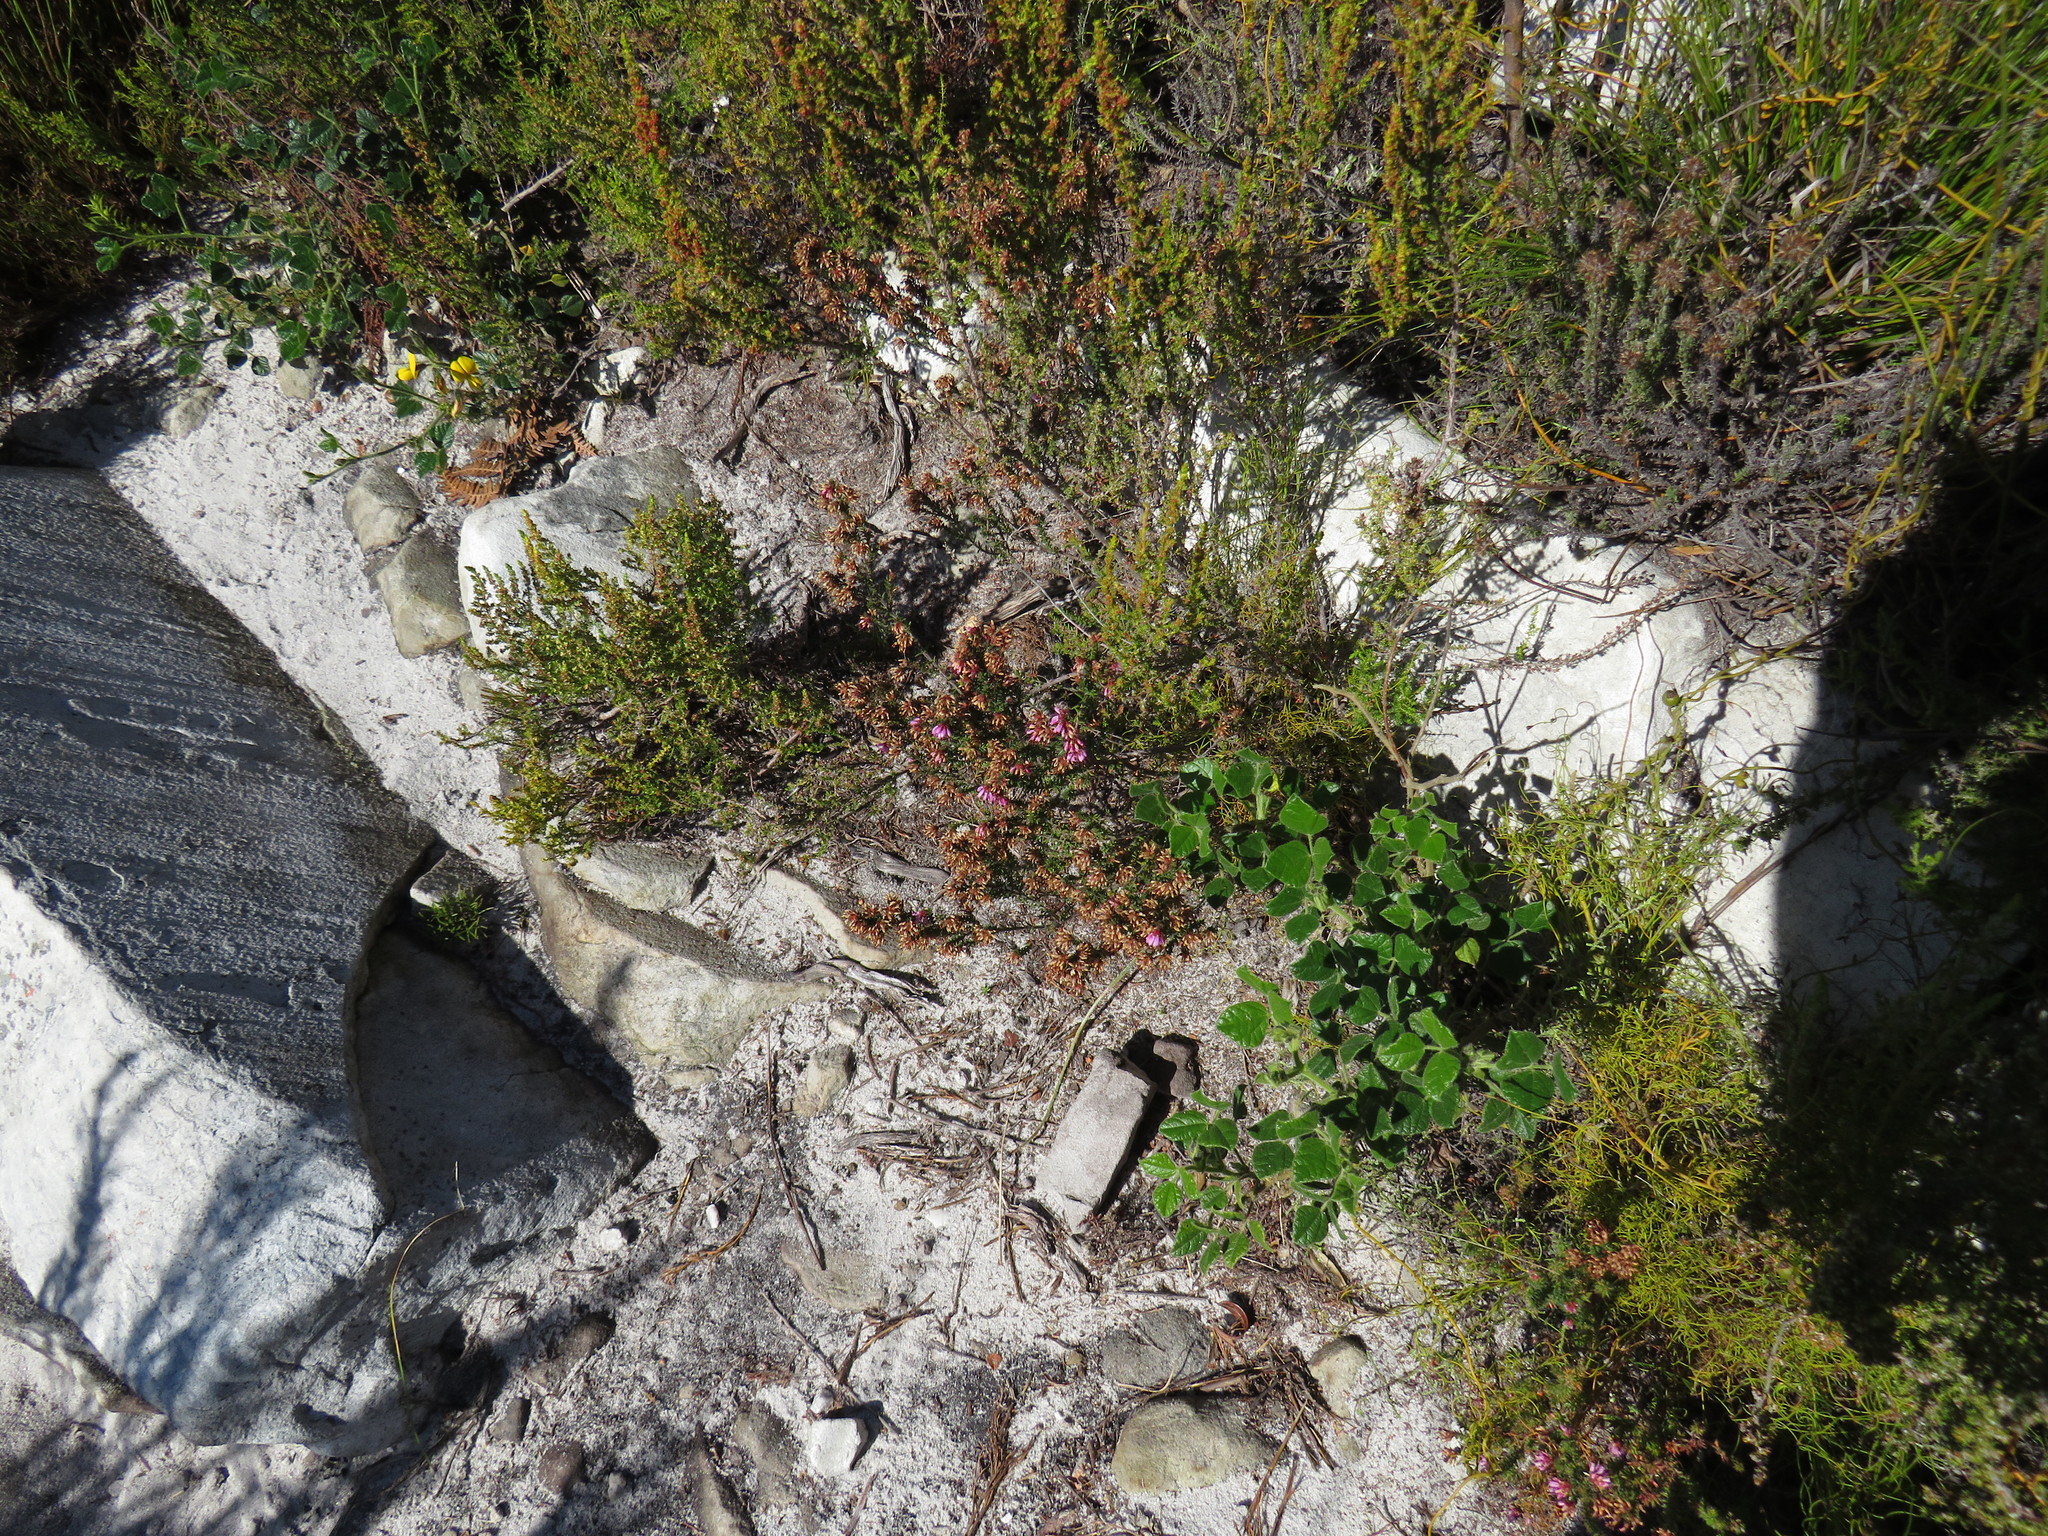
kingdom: Plantae
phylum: Tracheophyta
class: Magnoliopsida
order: Ericales
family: Ericaceae
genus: Erica
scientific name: Erica glabella
